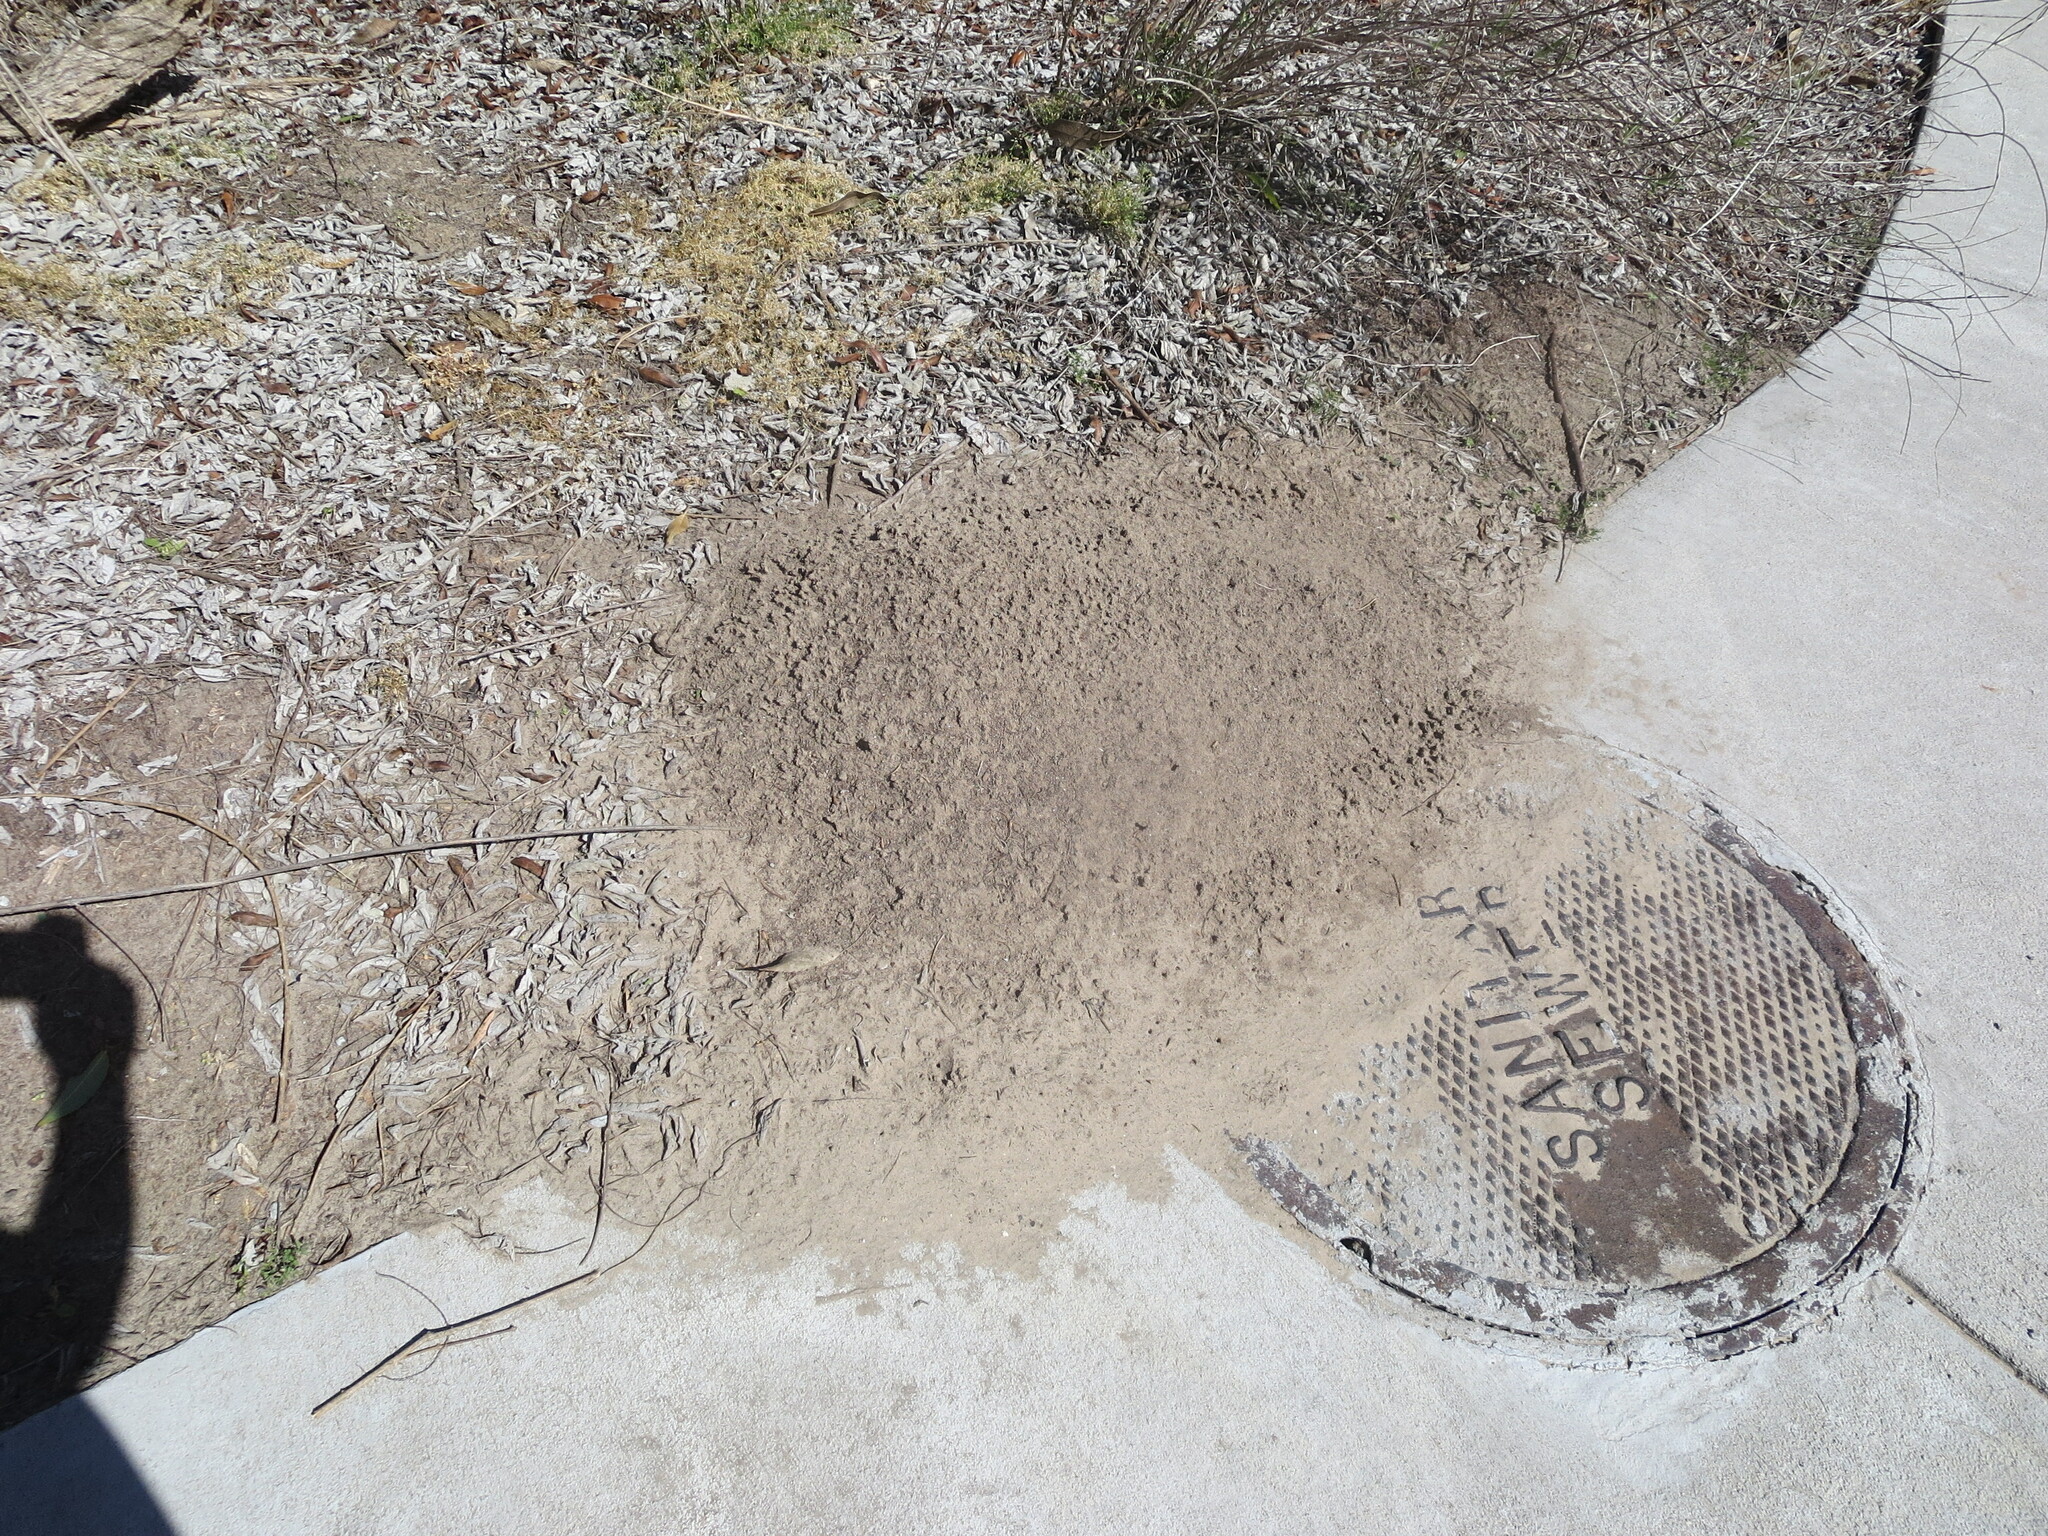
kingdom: Animalia
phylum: Arthropoda
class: Insecta
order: Hymenoptera
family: Formicidae
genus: Solenopsis
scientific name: Solenopsis invicta
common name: Red imported fire ant
